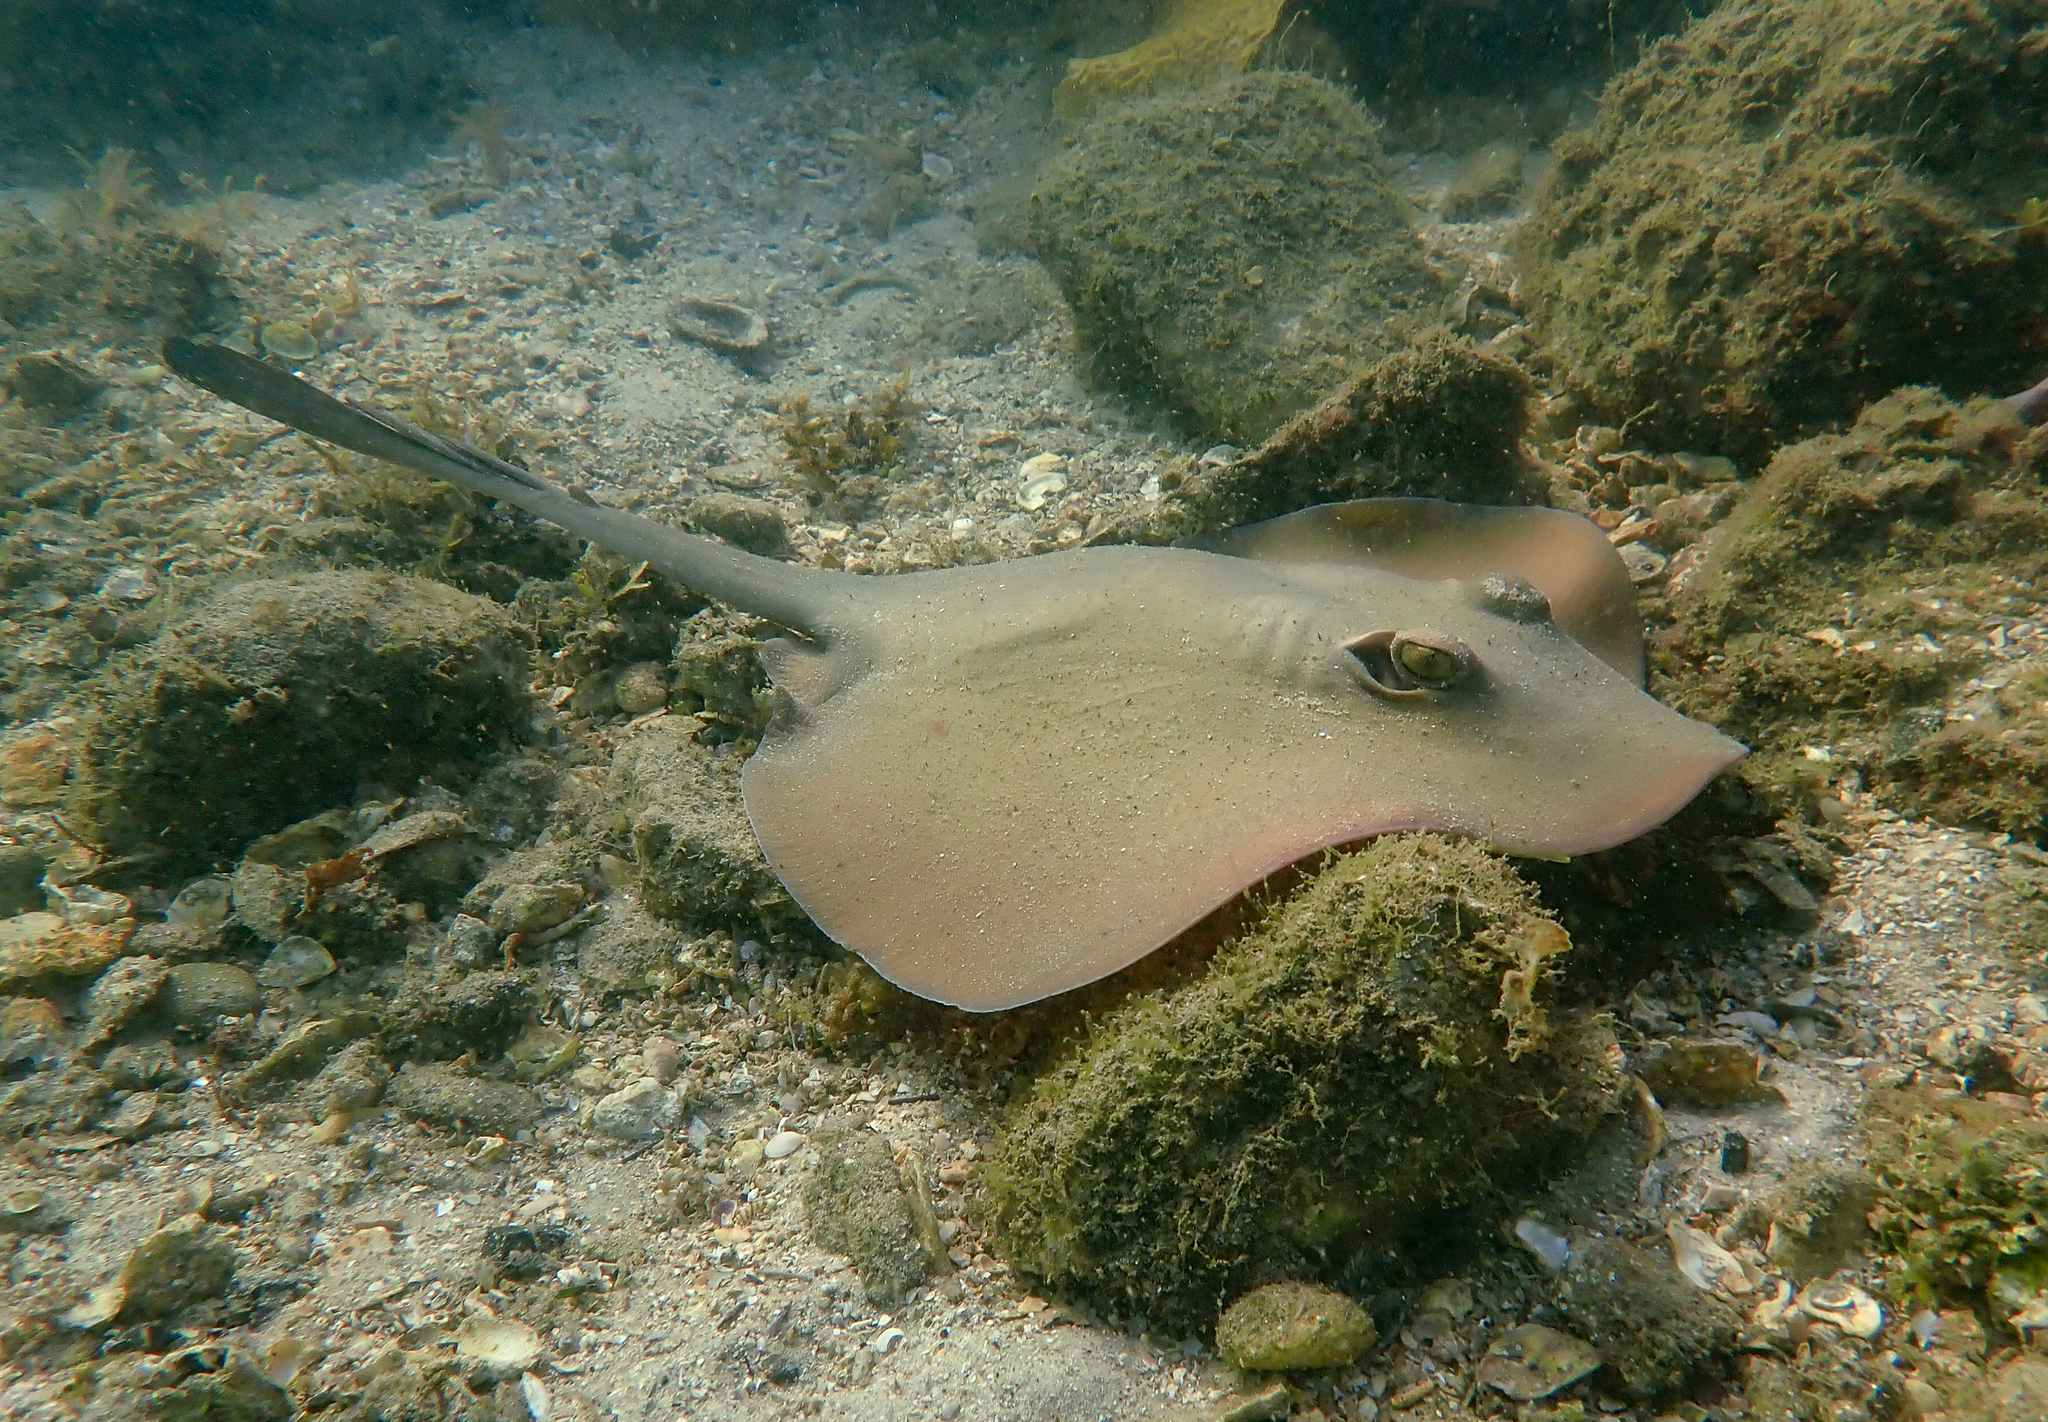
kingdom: Animalia
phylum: Chordata
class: Elasmobranchii
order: Myliobatiformes
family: Urolophidae
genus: Trygonoptera
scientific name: Trygonoptera testacea
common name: Common stingaree
